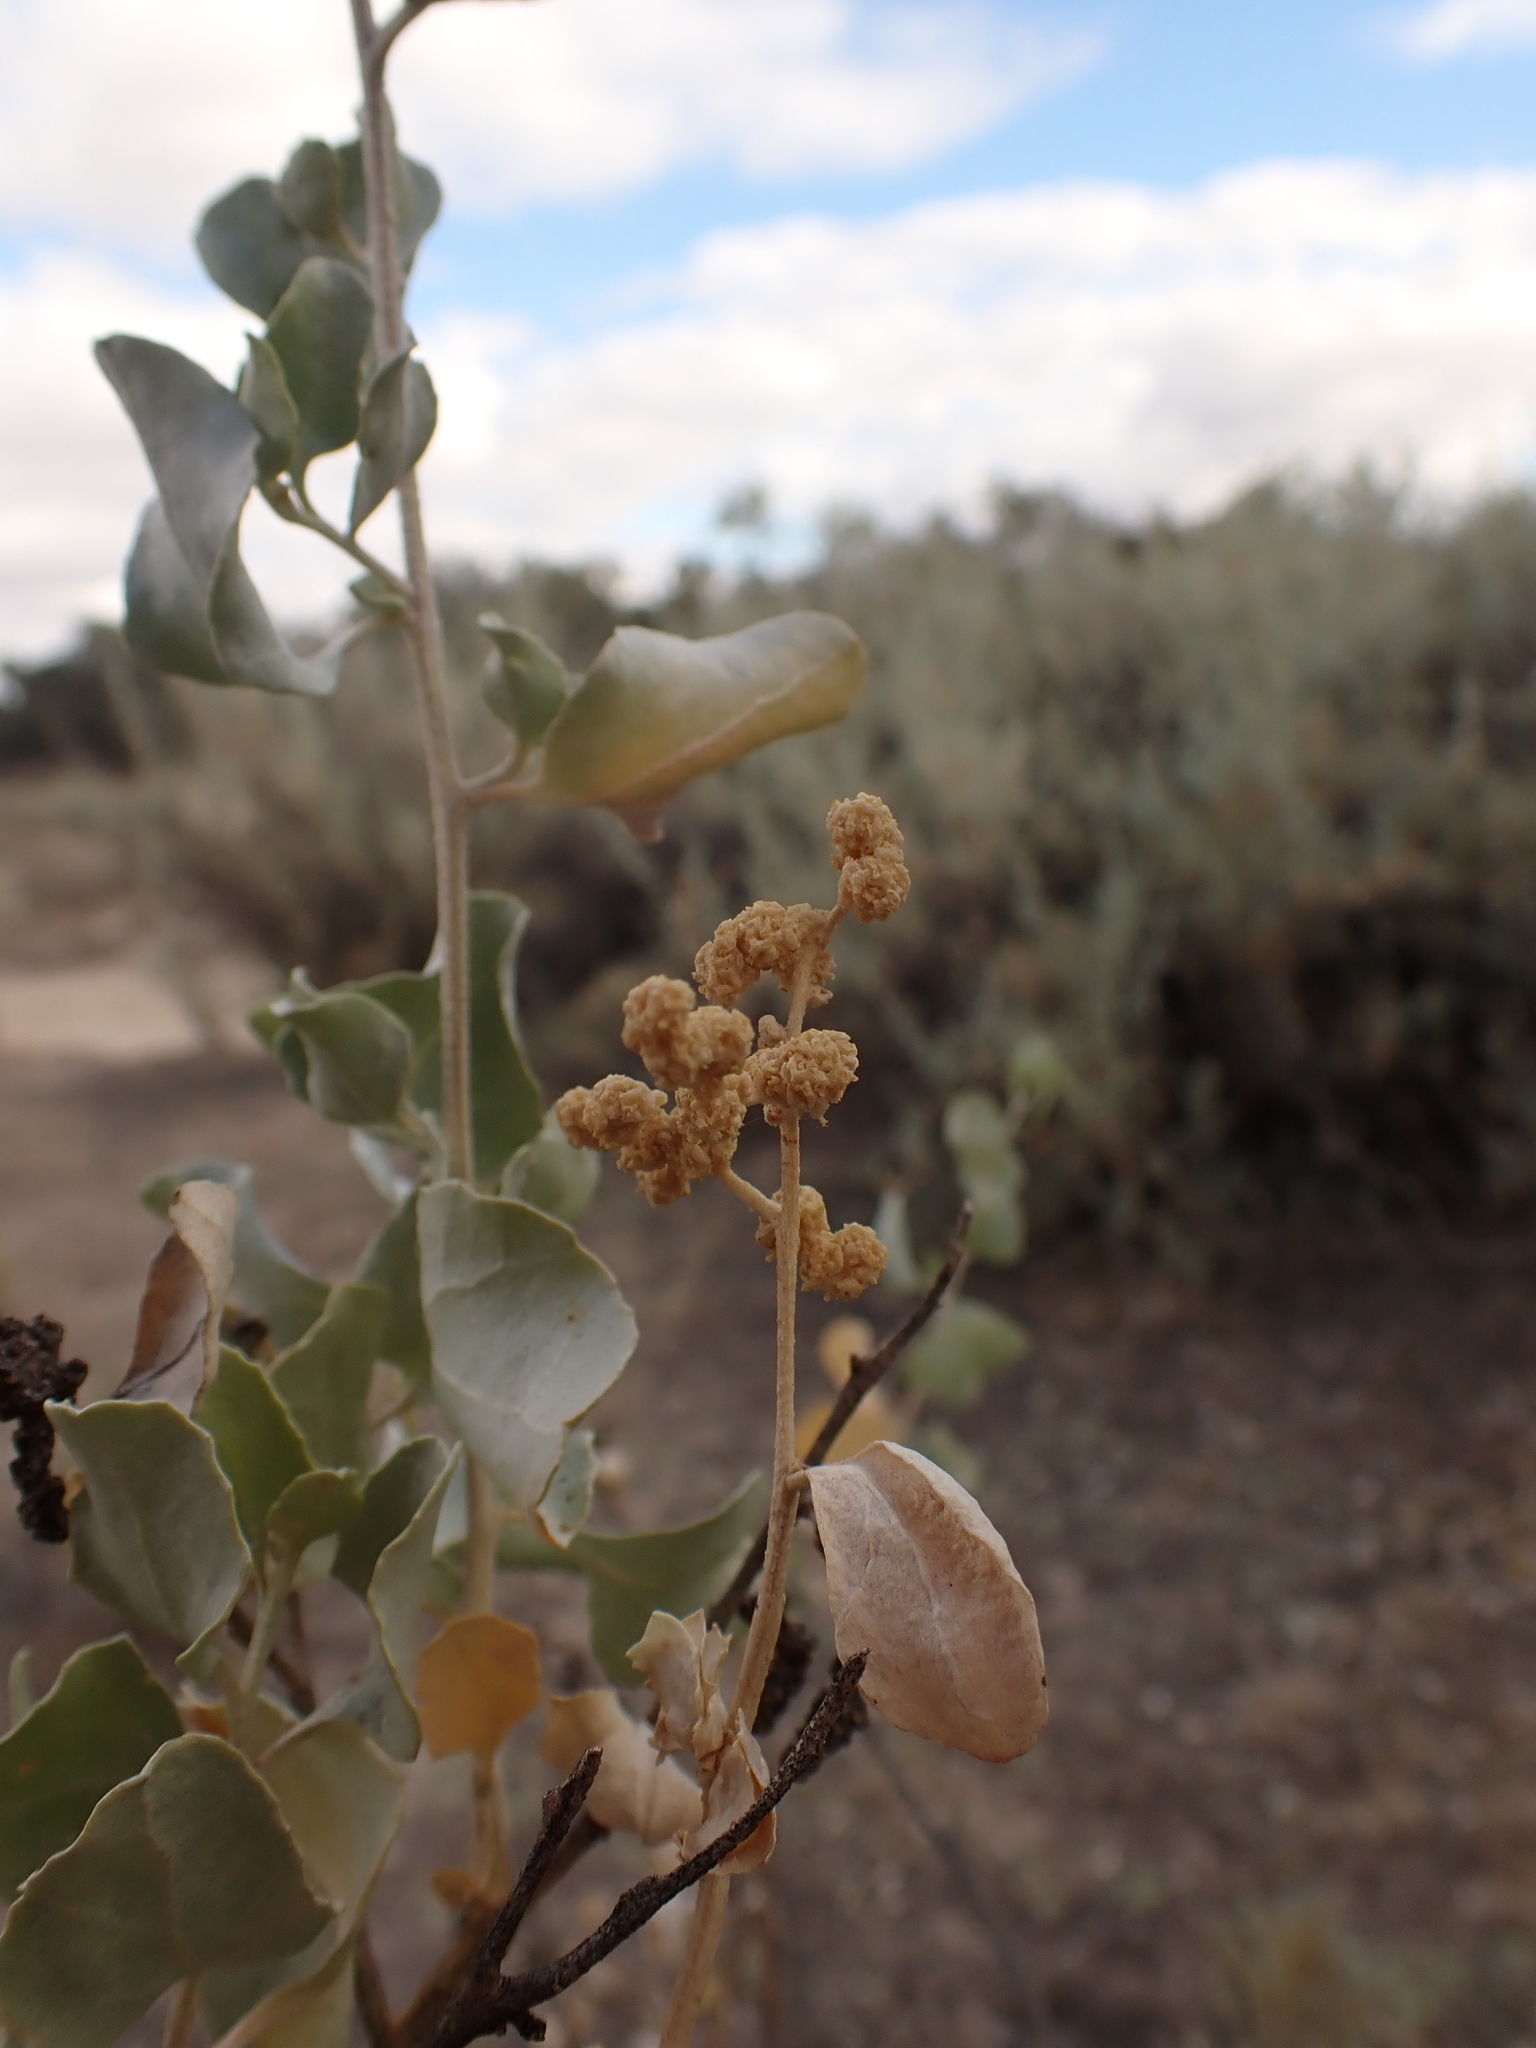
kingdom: Plantae
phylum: Tracheophyta
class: Magnoliopsida
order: Caryophyllales
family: Amaranthaceae
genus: Atriplex
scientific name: Atriplex nummularia
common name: Bluegreen saltbush
